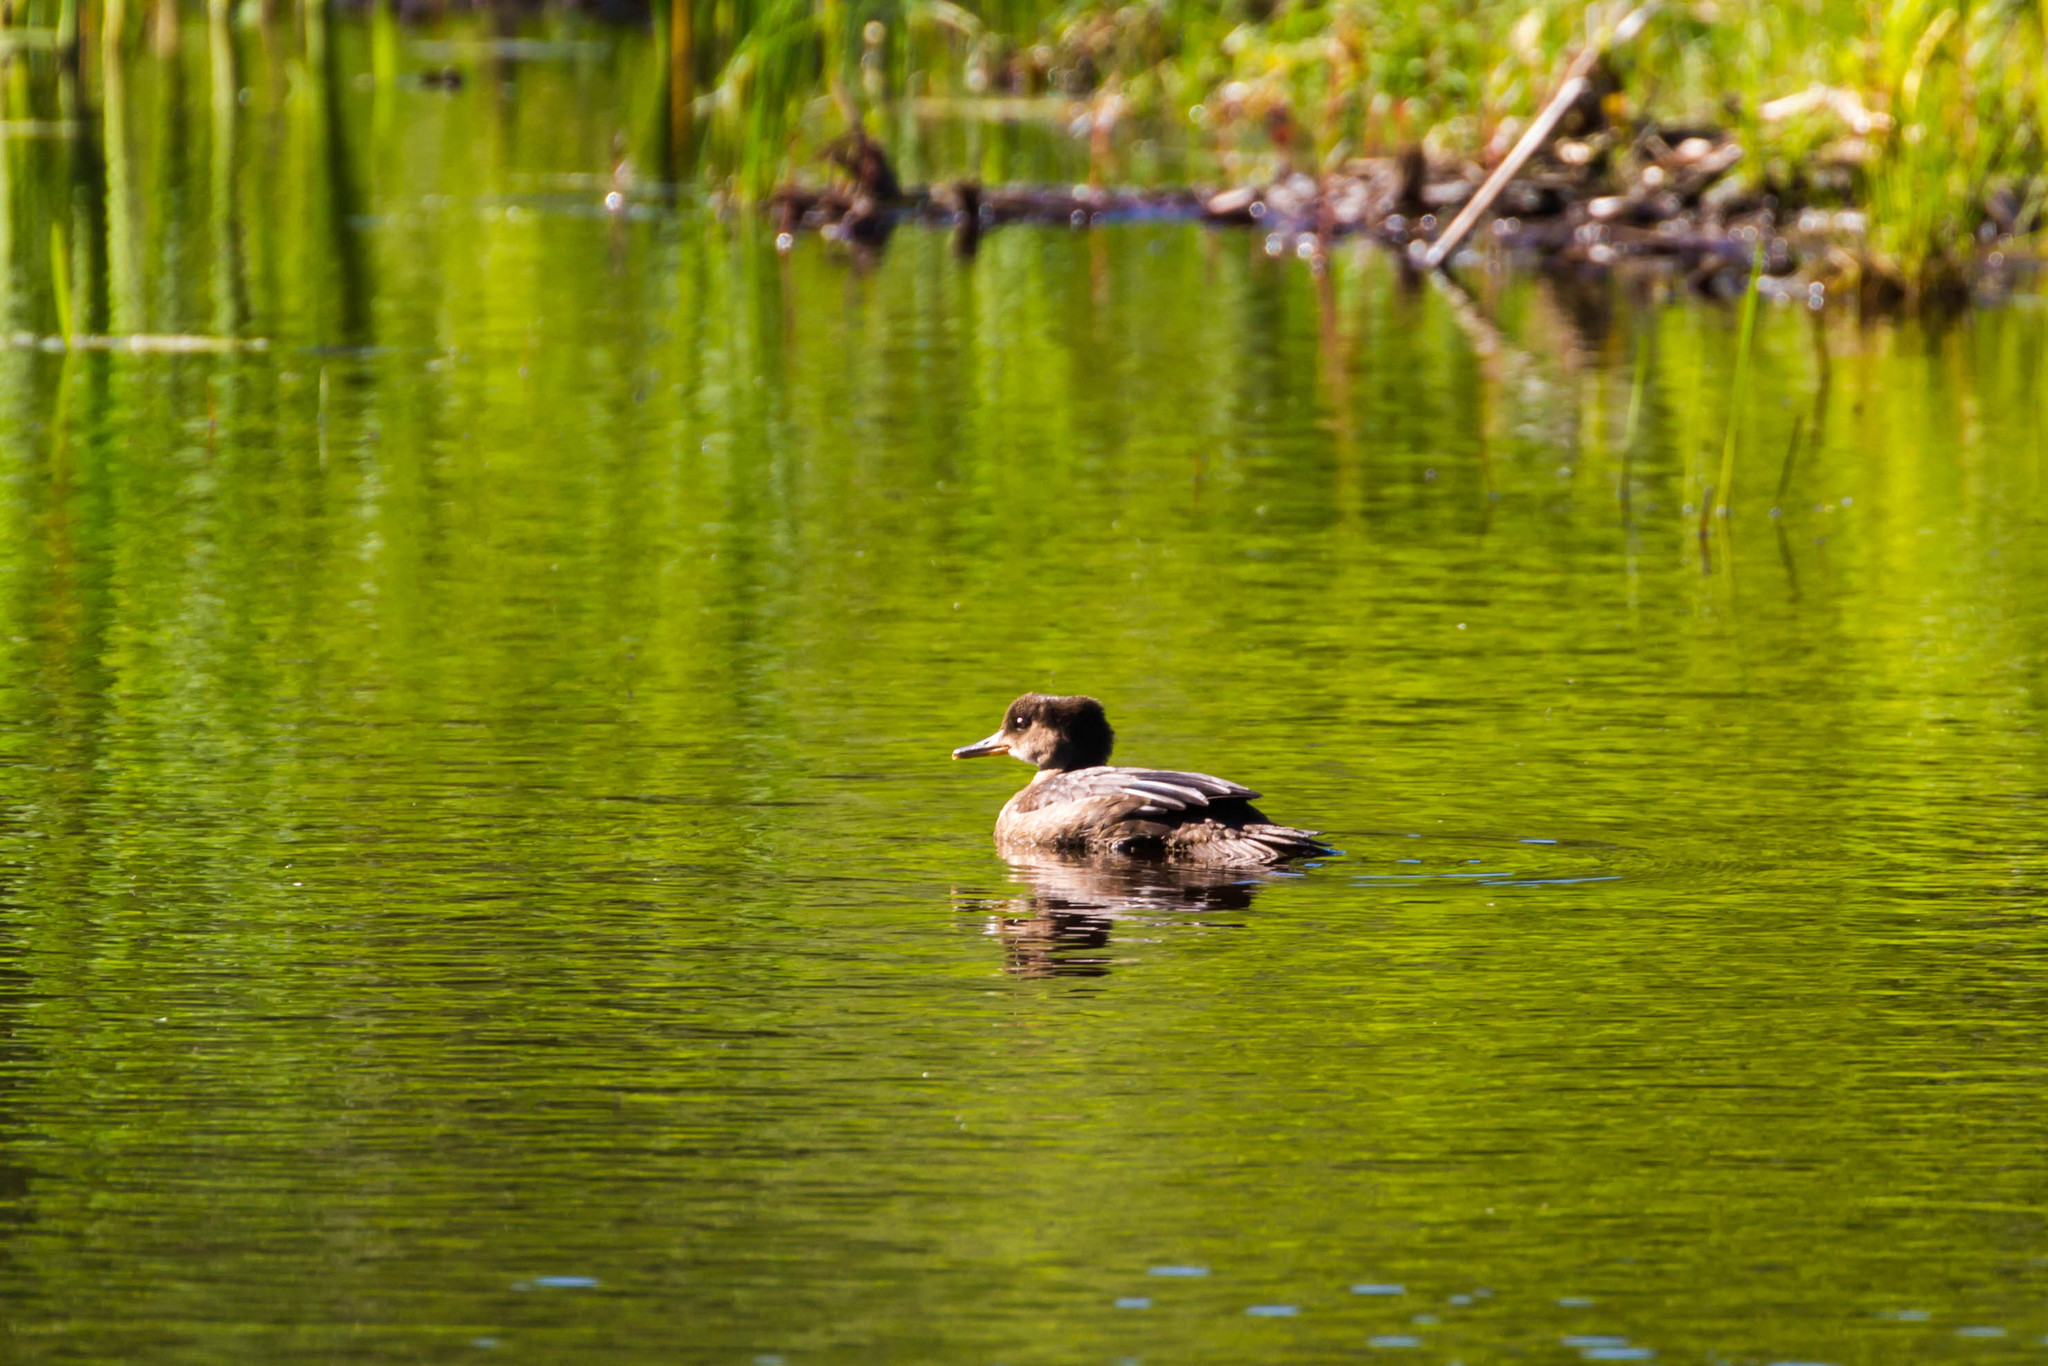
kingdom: Animalia
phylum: Chordata
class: Aves
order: Anseriformes
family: Anatidae
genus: Lophodytes
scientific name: Lophodytes cucullatus
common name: Hooded merganser
